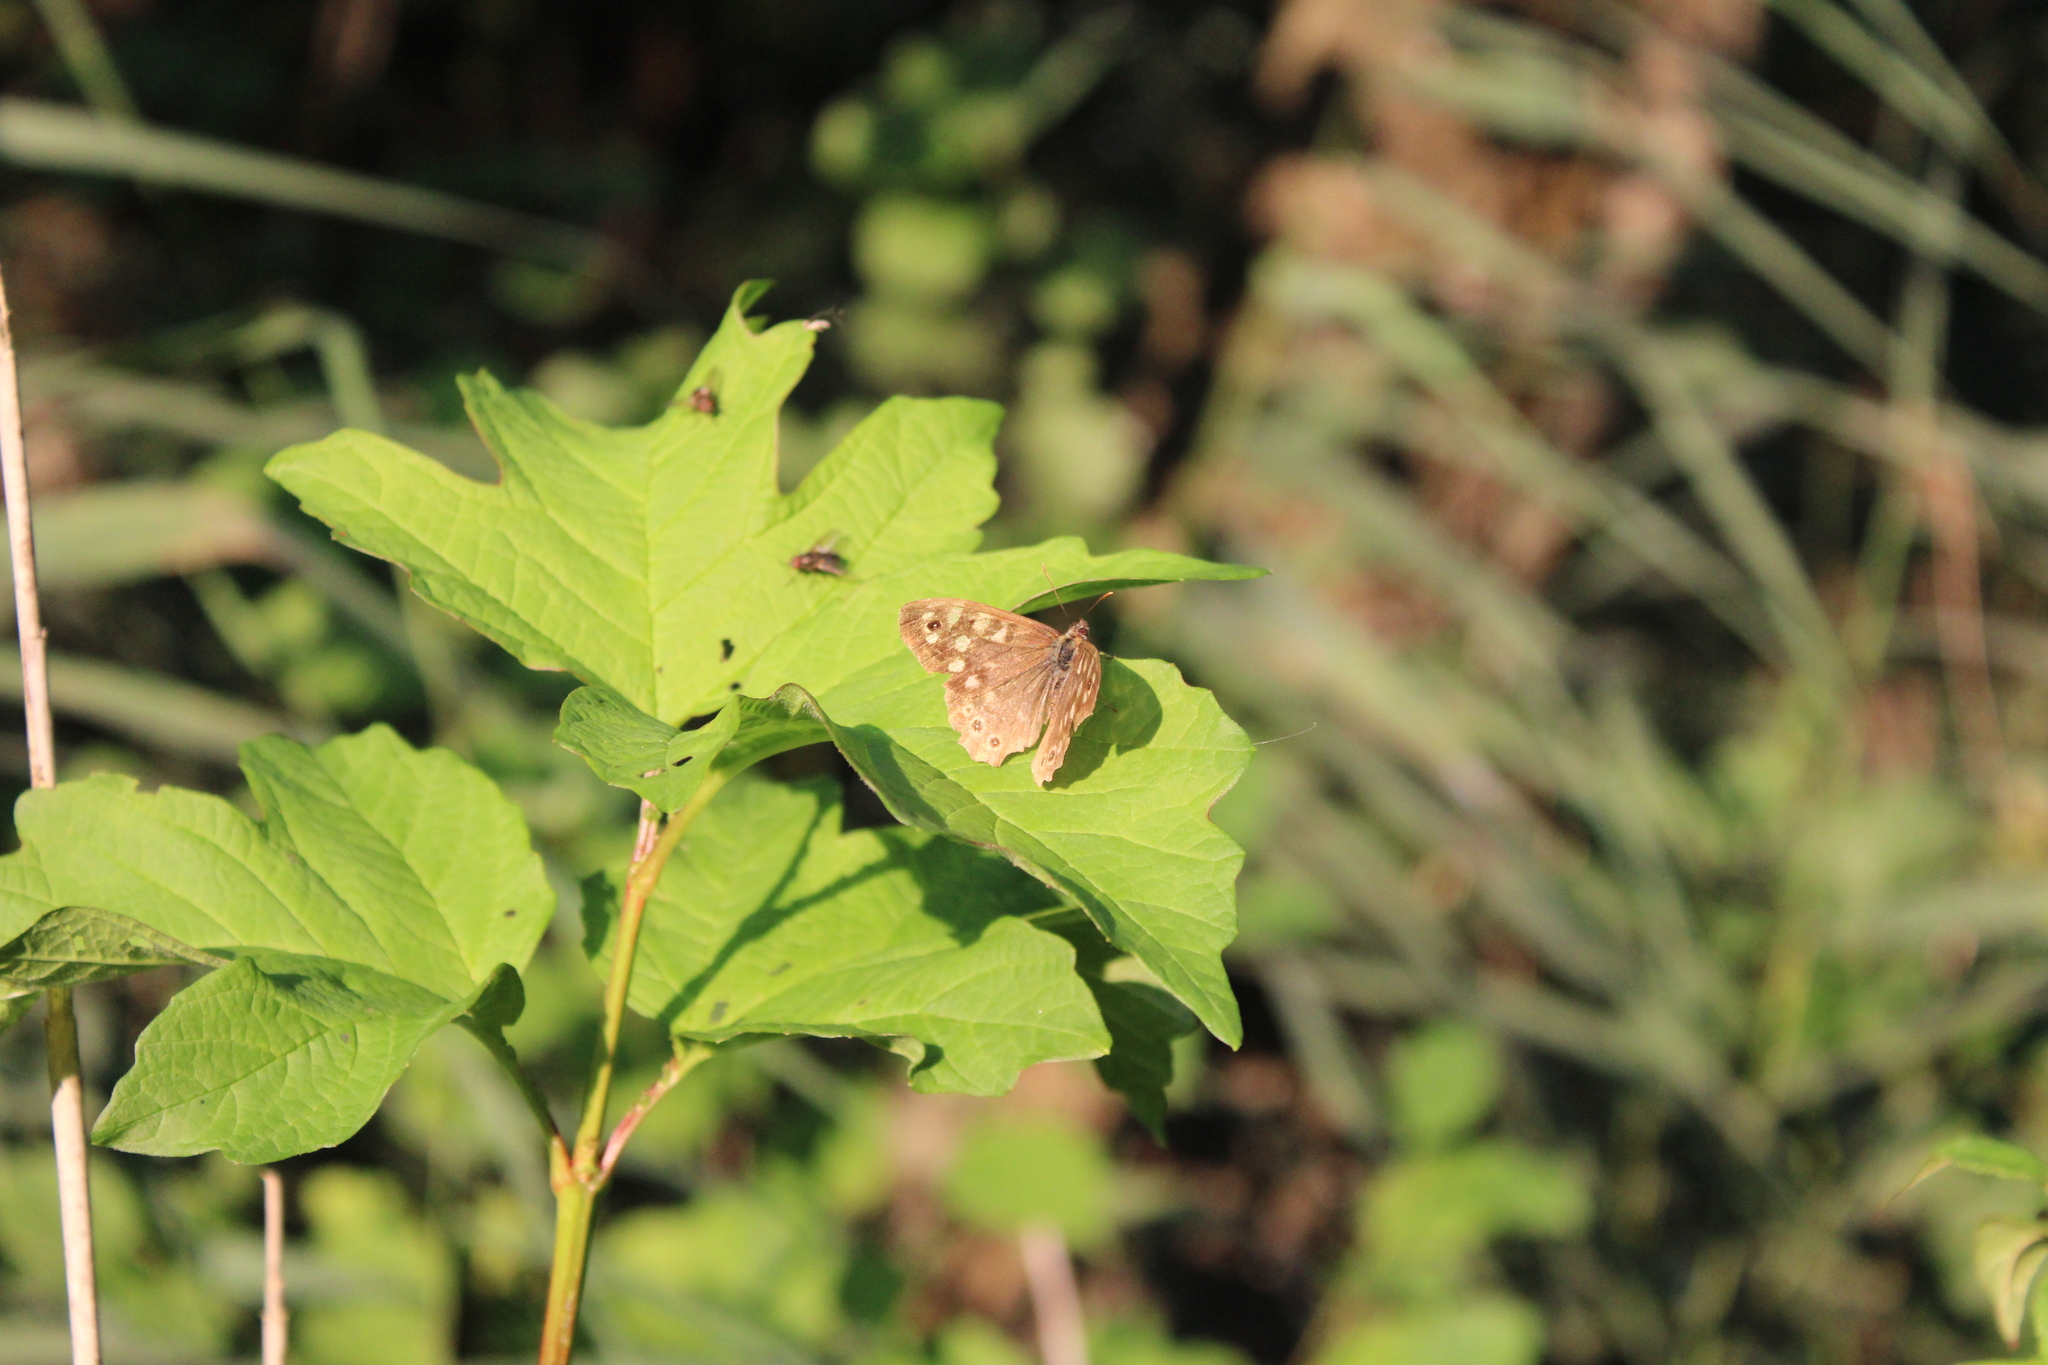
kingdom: Animalia
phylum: Arthropoda
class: Insecta
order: Lepidoptera
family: Nymphalidae
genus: Pararge
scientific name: Pararge aegeria
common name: Speckled wood
